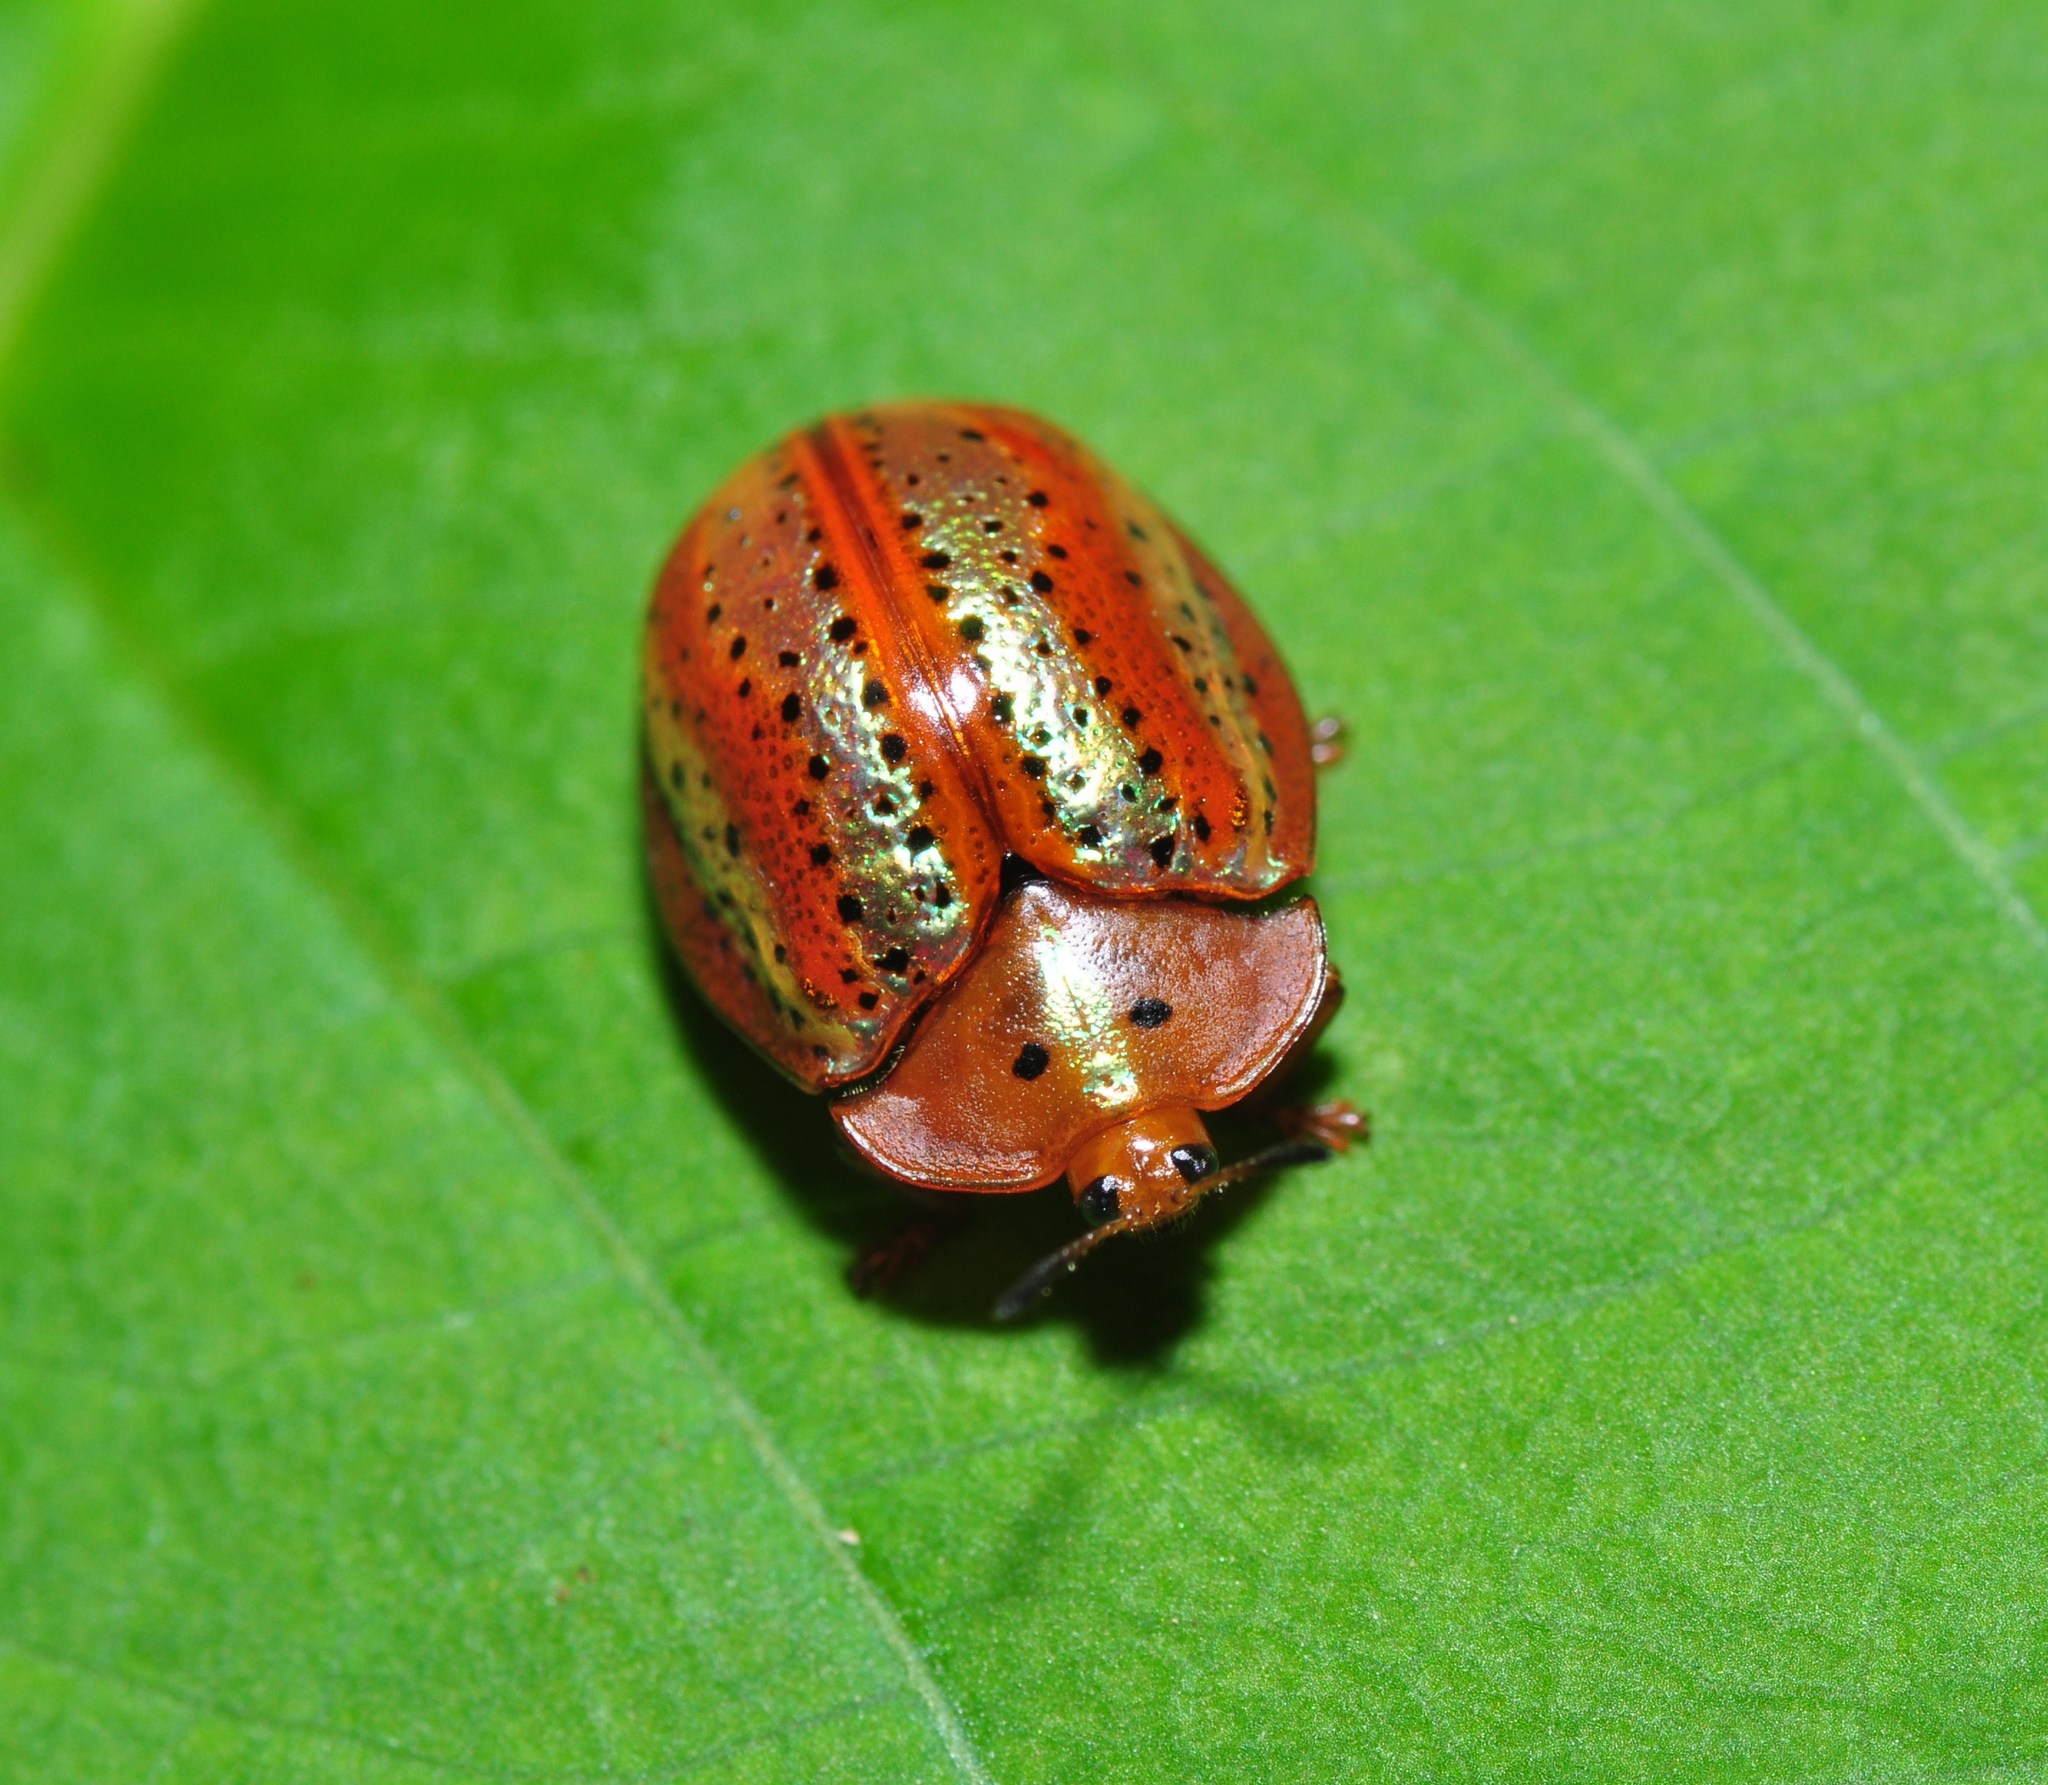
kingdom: Animalia
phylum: Arthropoda
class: Insecta
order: Coleoptera
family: Chrysomelidae
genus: Chelymorpha
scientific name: Chelymorpha alternans
